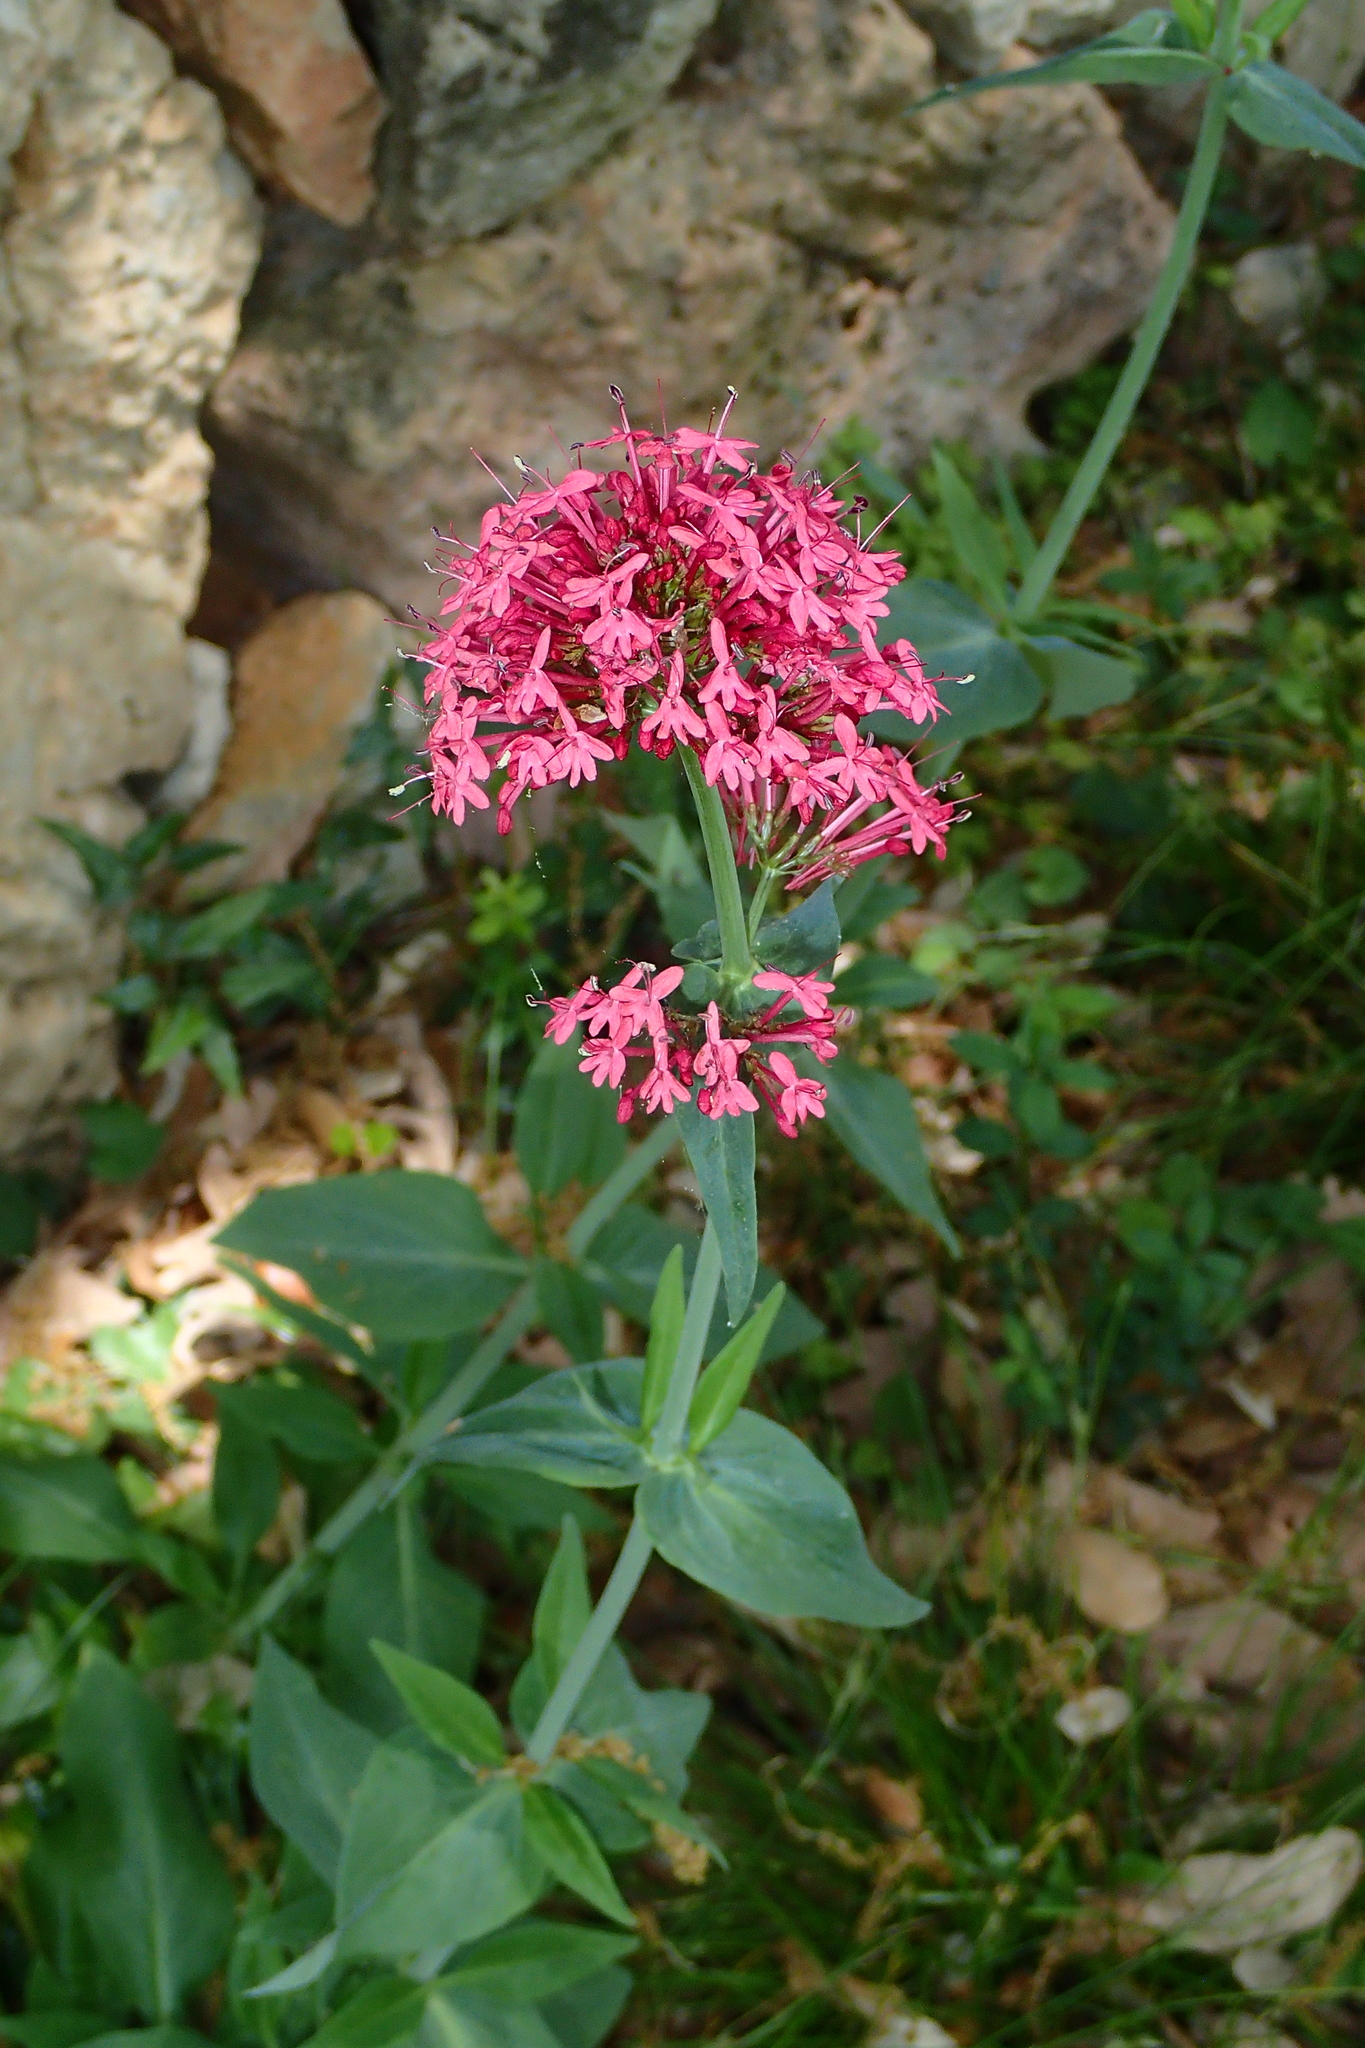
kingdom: Plantae
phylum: Tracheophyta
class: Magnoliopsida
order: Dipsacales
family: Caprifoliaceae
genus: Centranthus
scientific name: Centranthus ruber
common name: Red valerian
